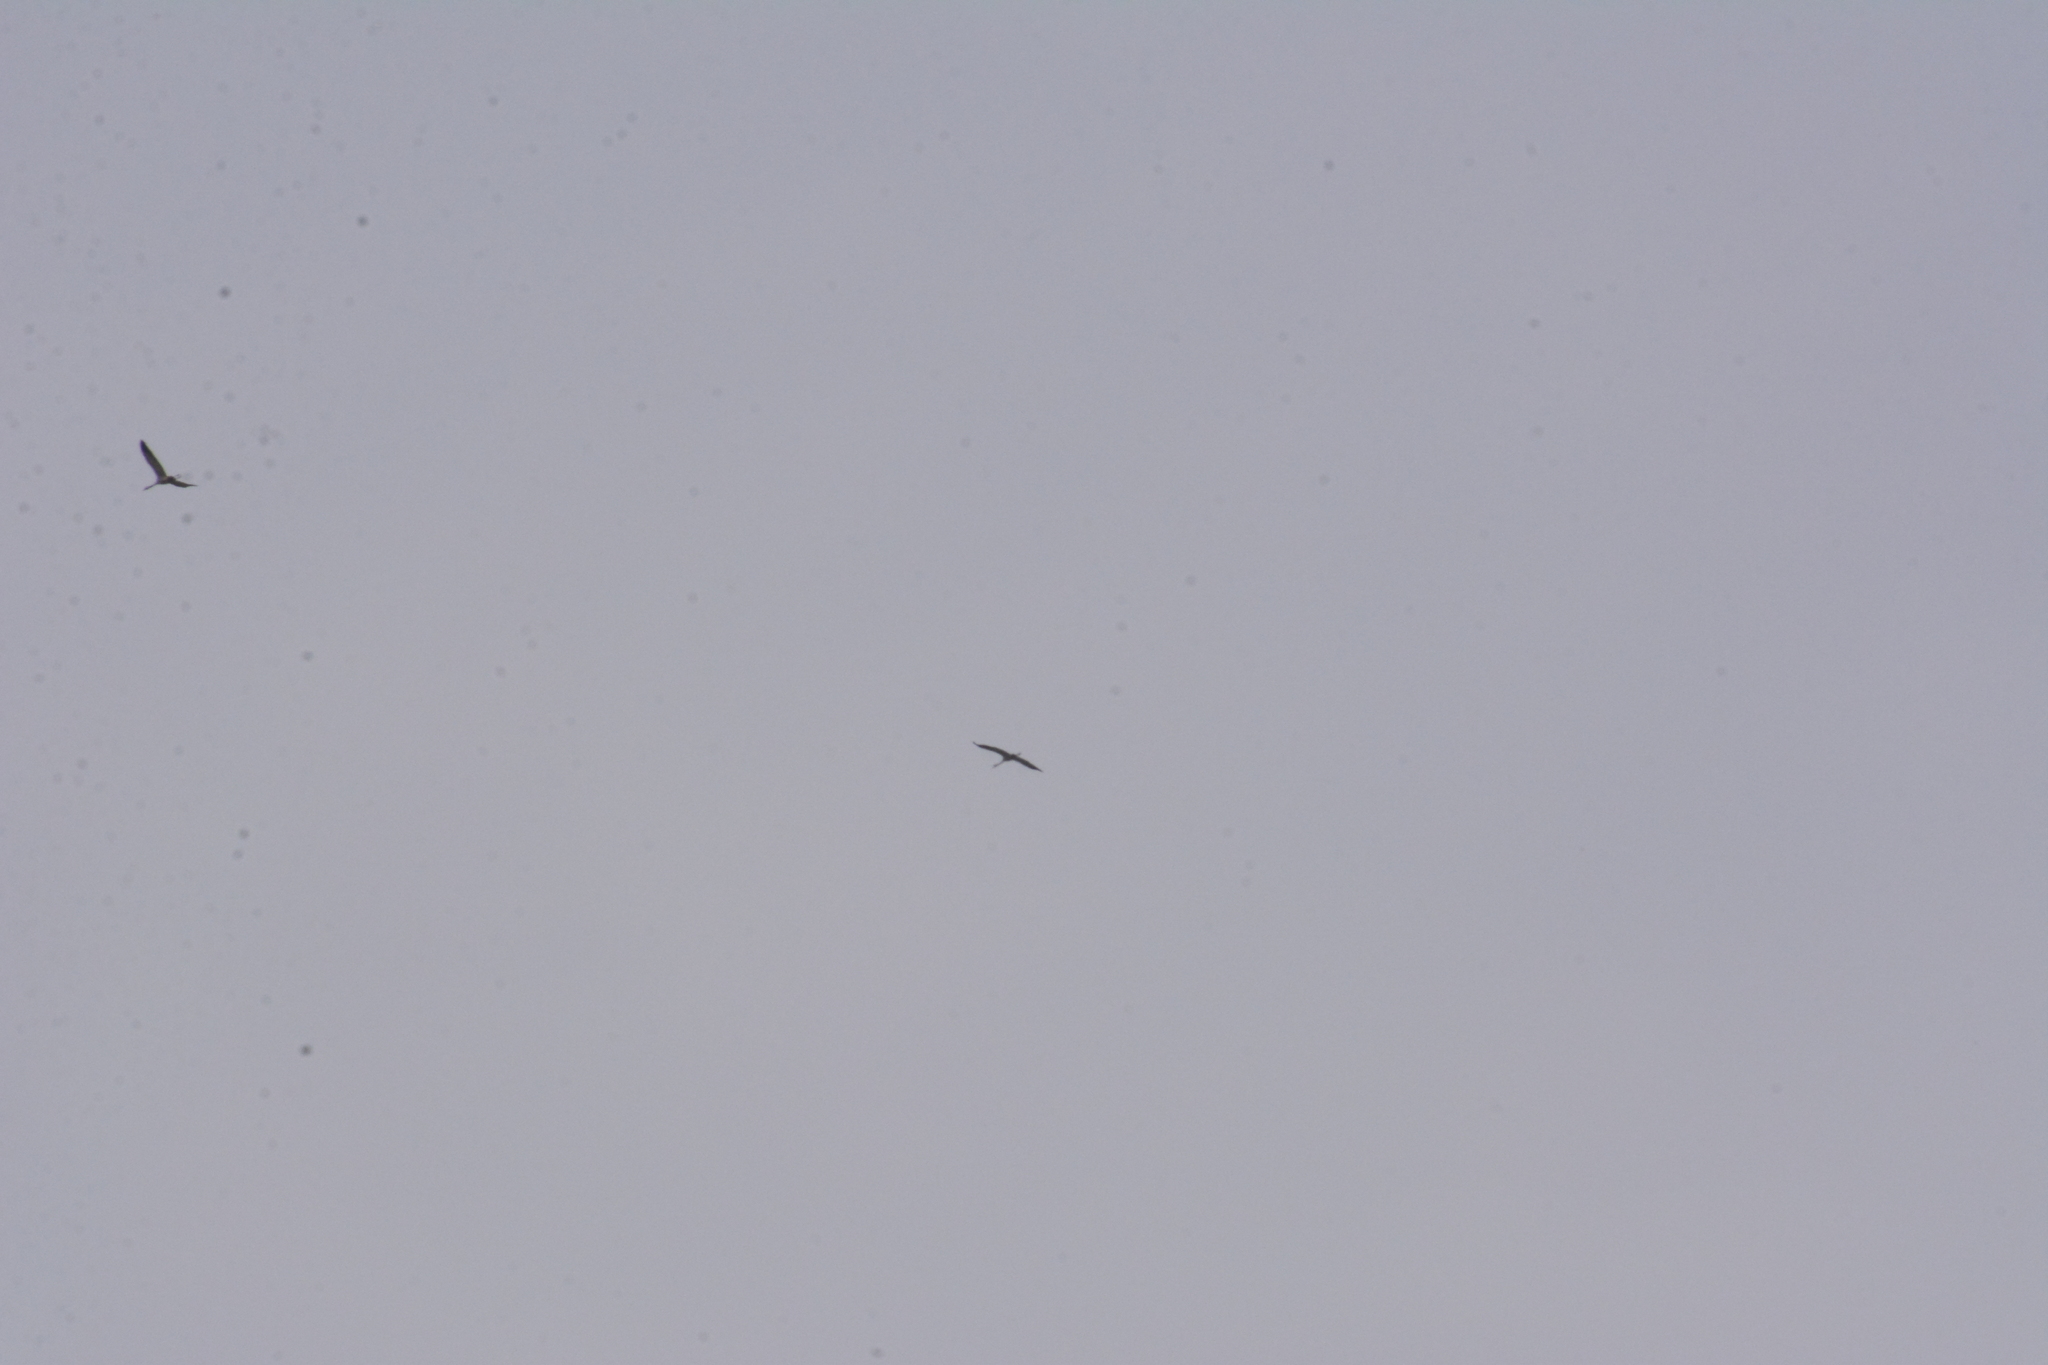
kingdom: Animalia
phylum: Chordata
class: Aves
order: Gruiformes
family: Gruidae
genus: Grus
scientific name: Grus grus
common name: Common crane
